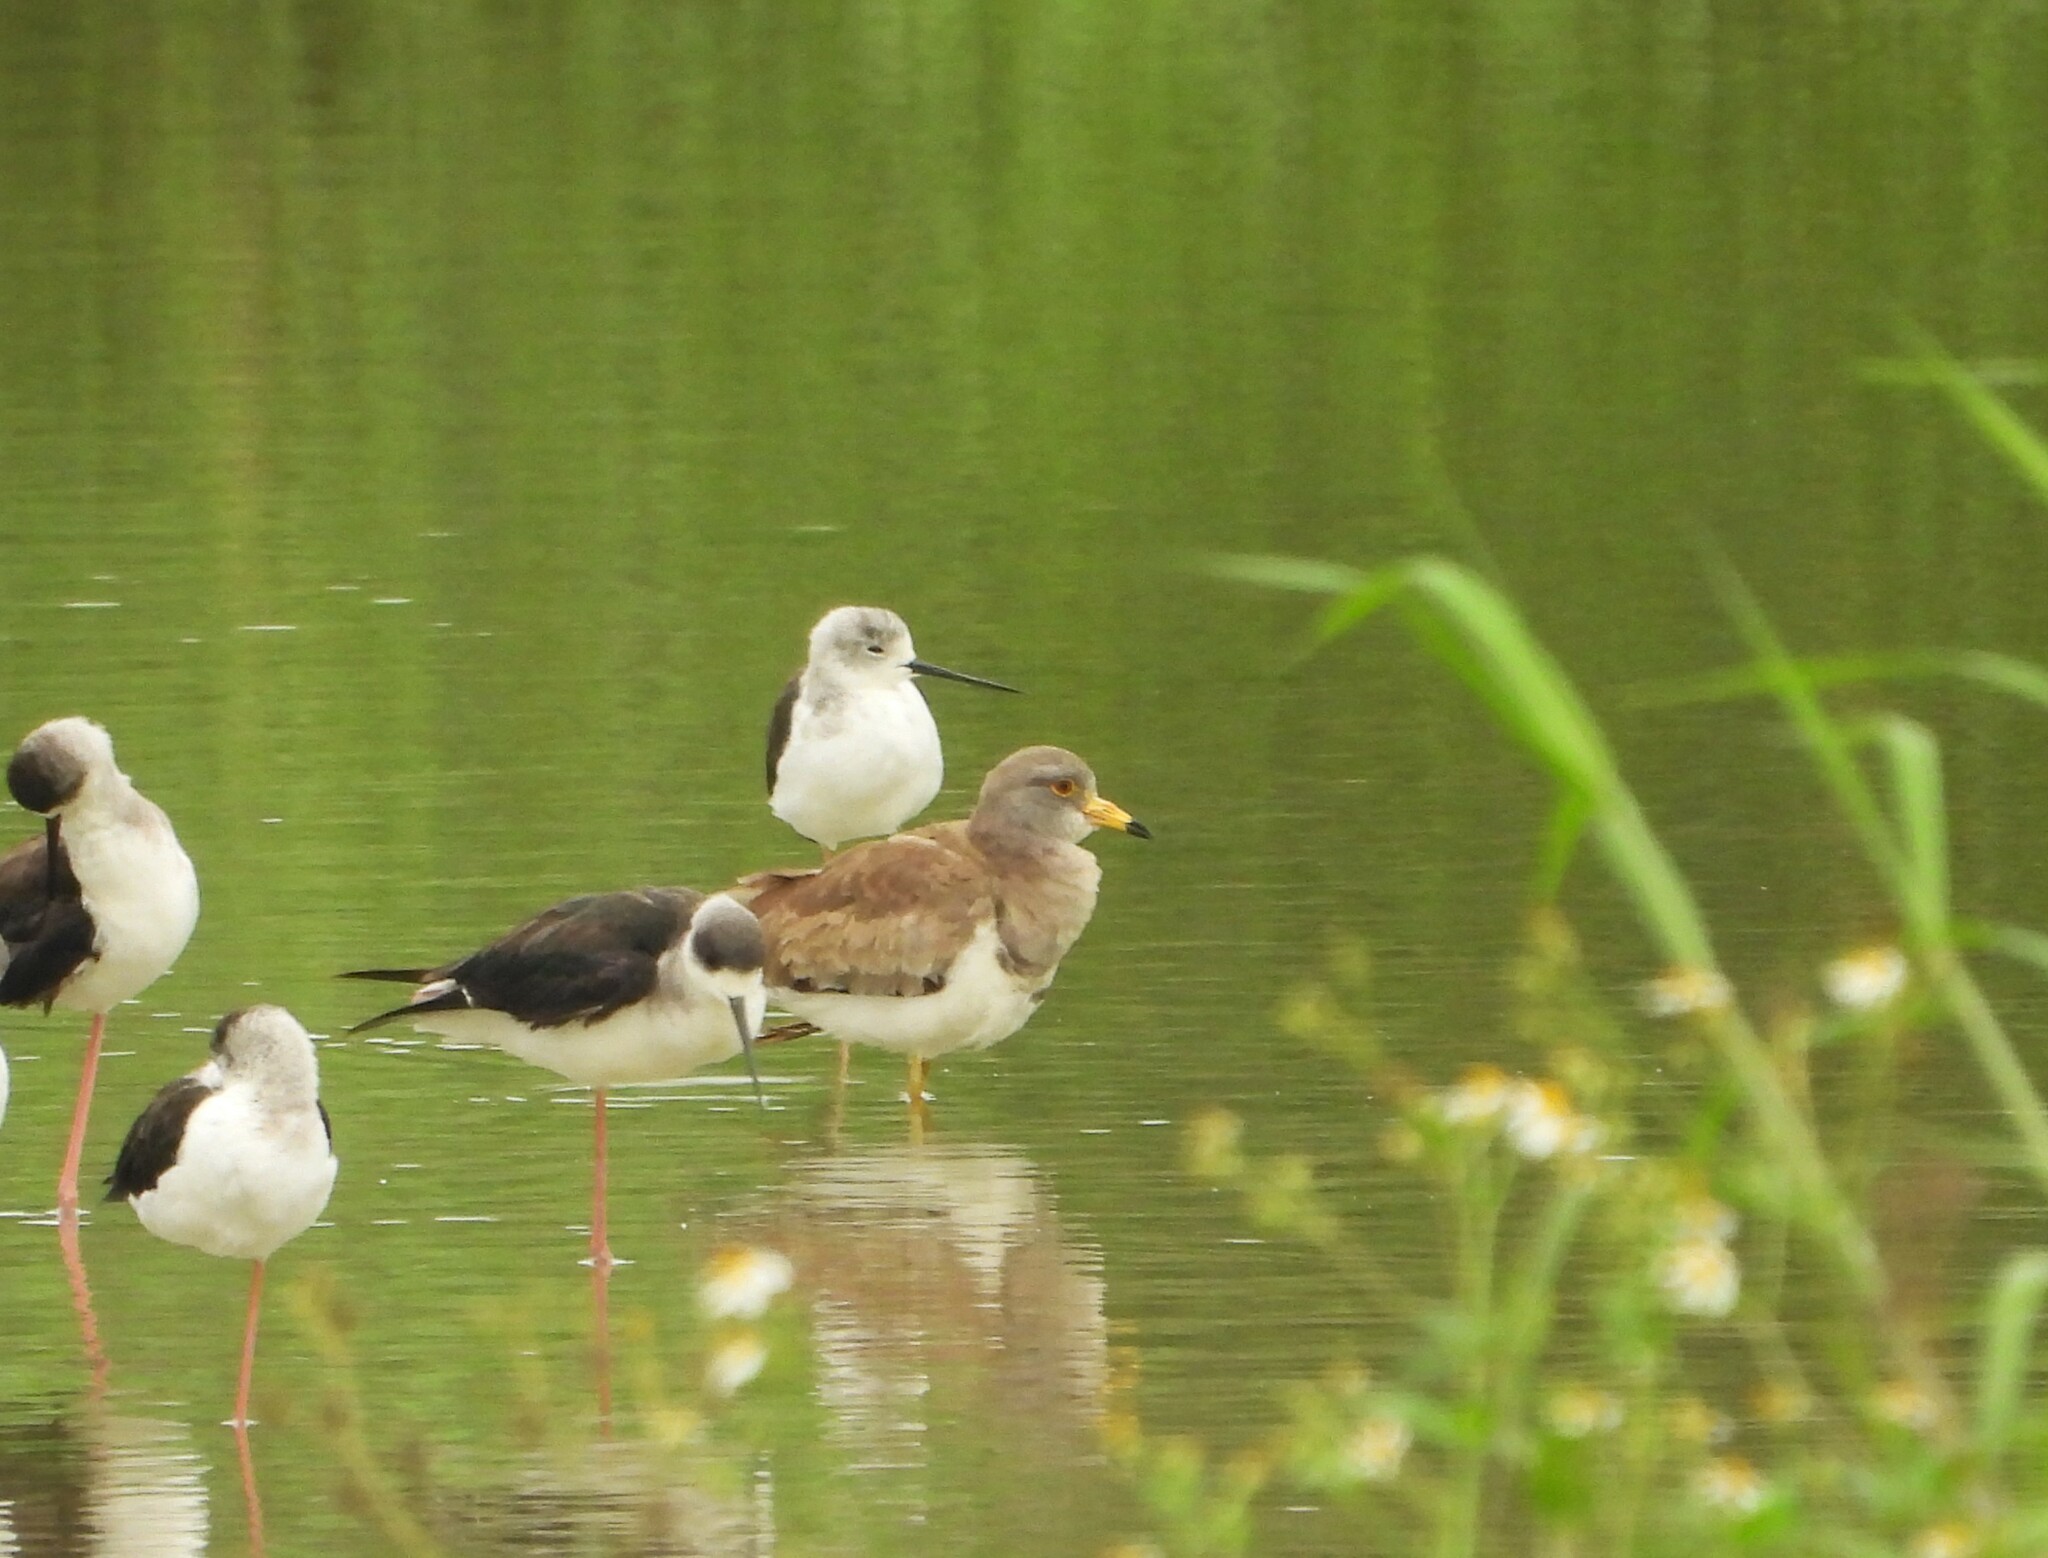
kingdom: Animalia
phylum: Chordata
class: Aves
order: Charadriiformes
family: Charadriidae
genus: Vanellus
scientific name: Vanellus cinereus
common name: Grey-headed lapwing
